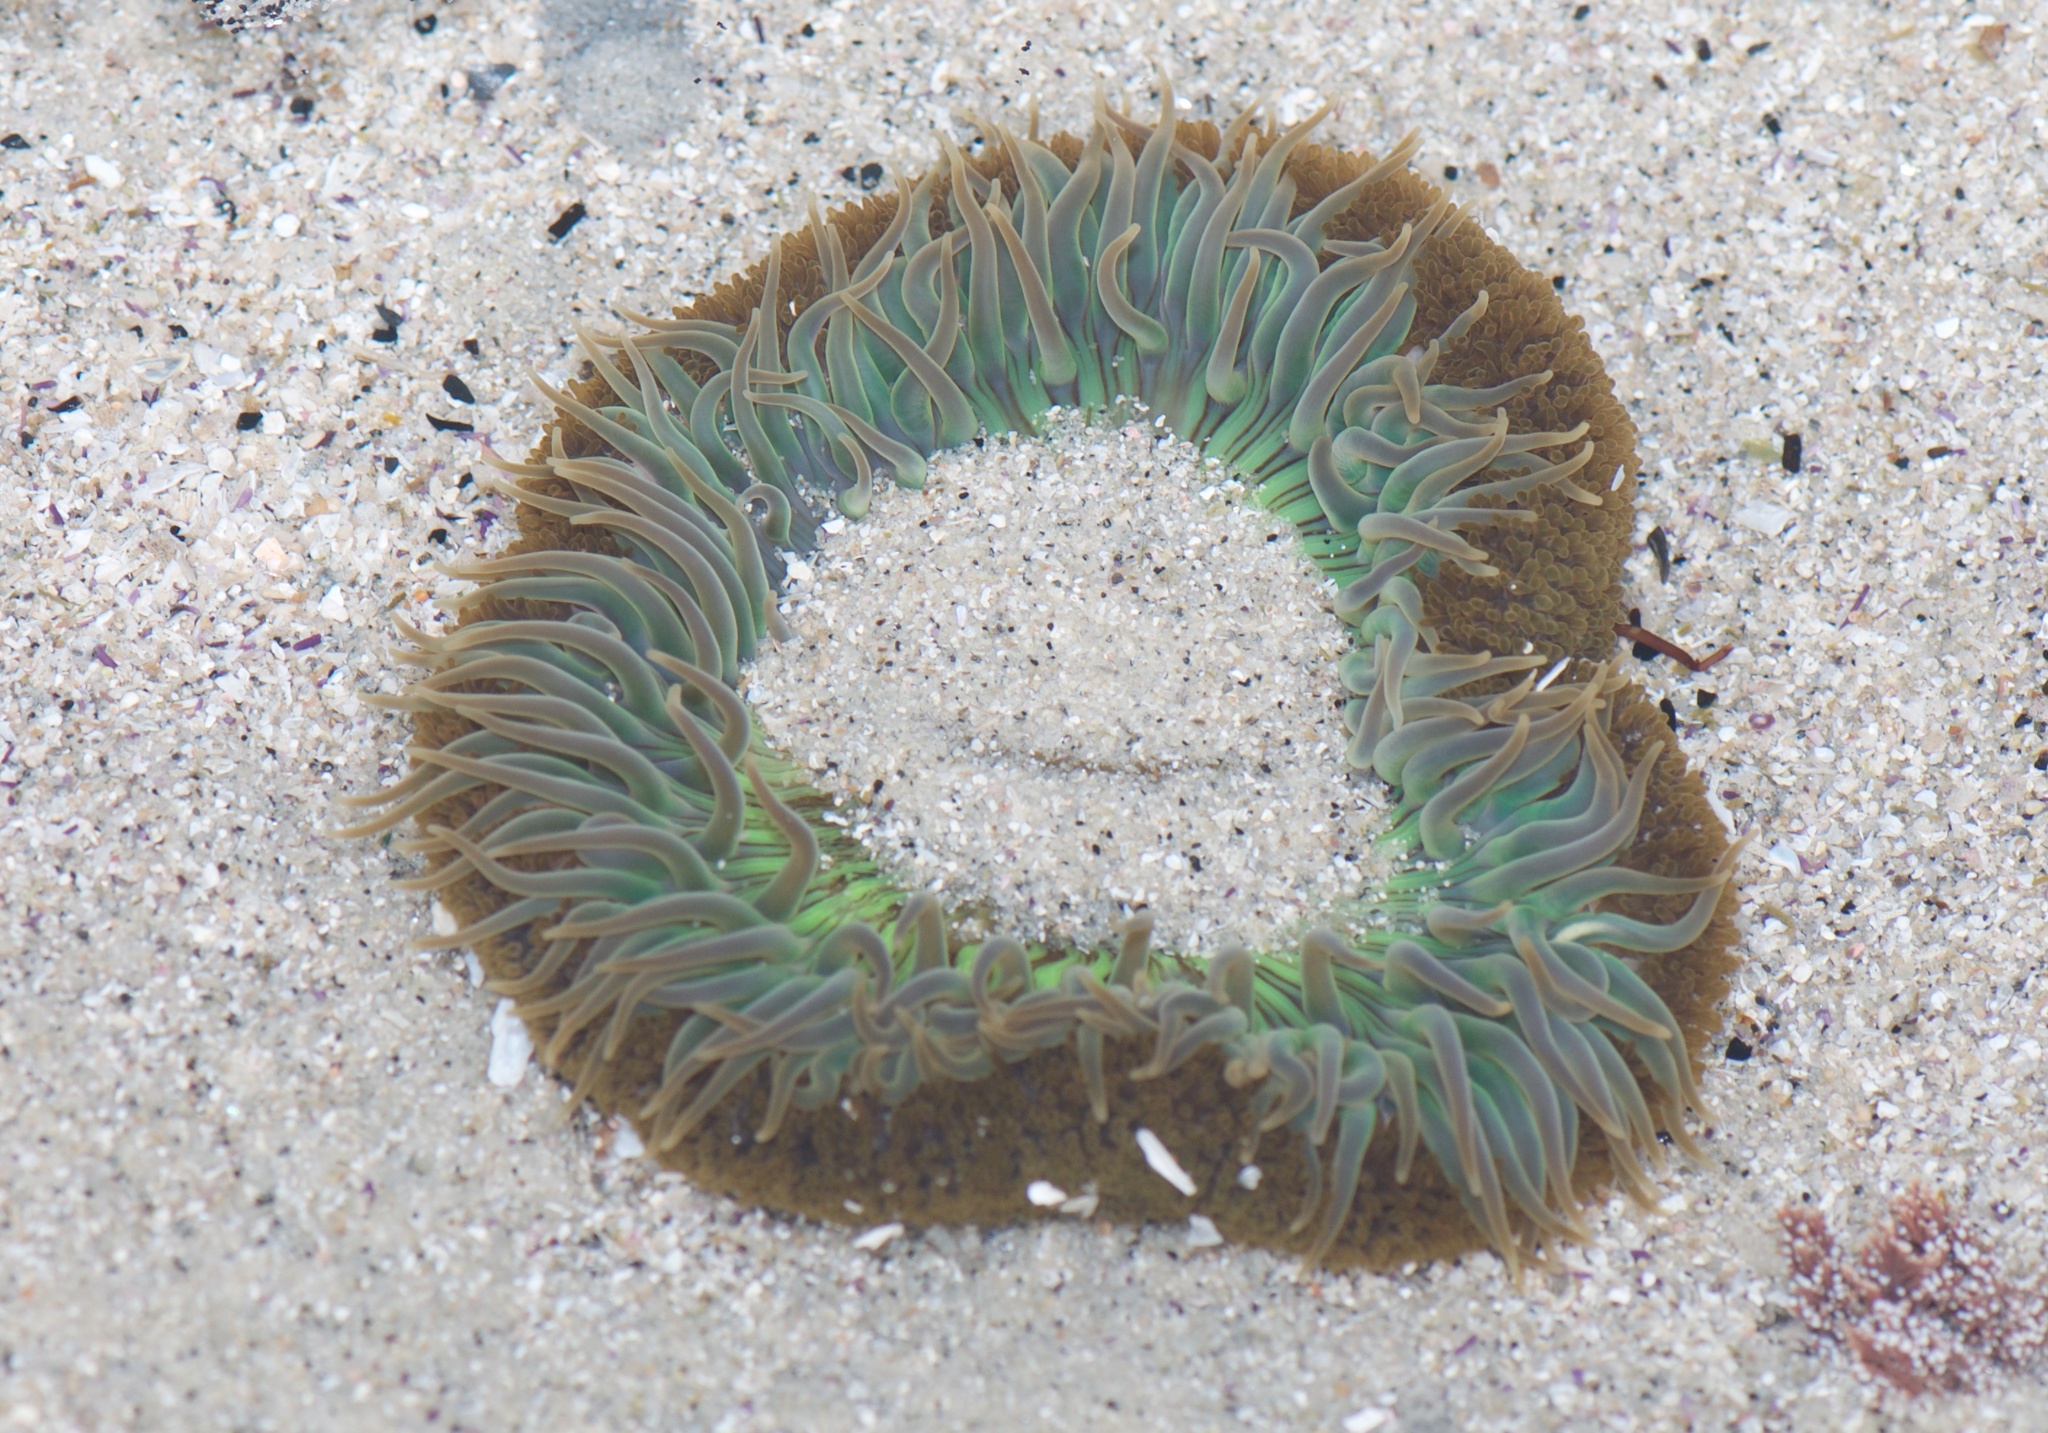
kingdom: Animalia
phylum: Cnidaria
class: Anthozoa
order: Actiniaria
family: Actiniidae
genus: Anthopleura
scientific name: Anthopleura sola
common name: Sun anemone
